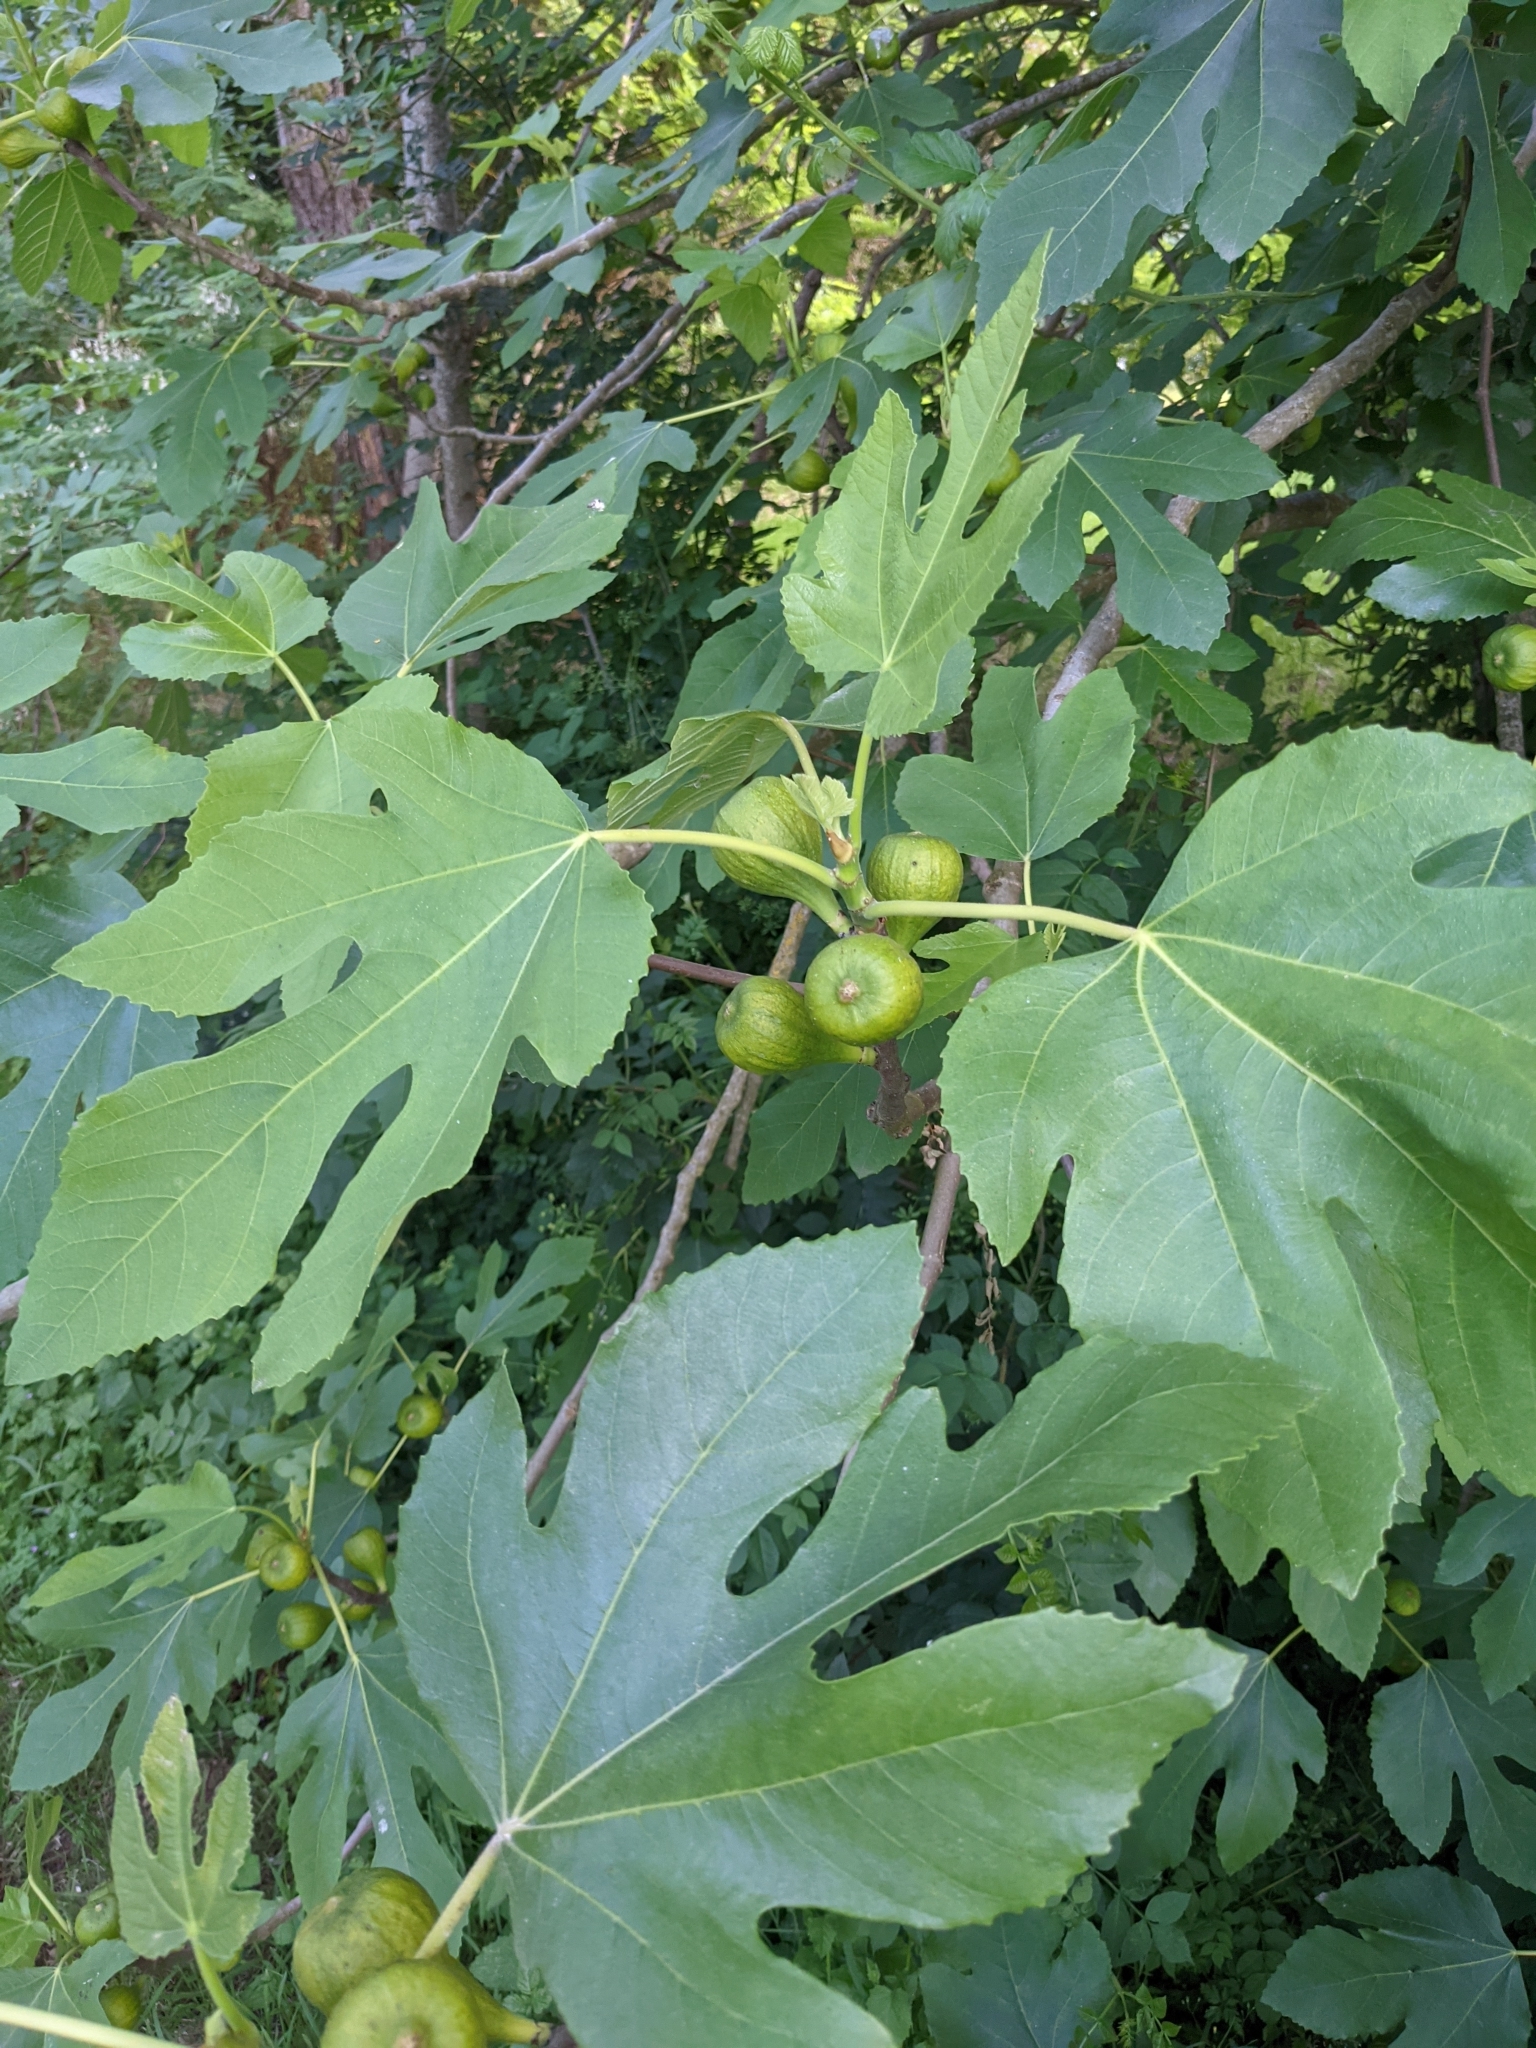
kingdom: Plantae
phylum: Tracheophyta
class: Magnoliopsida
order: Rosales
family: Moraceae
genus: Ficus
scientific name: Ficus carica
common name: Fig
